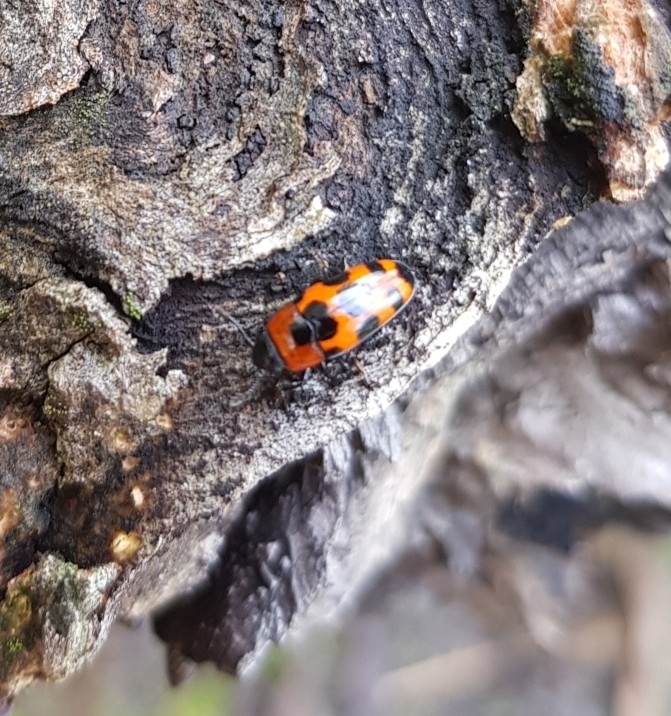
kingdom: Animalia
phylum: Arthropoda
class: Insecta
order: Coleoptera
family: Erotylidae
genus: Episcaphula
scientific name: Episcaphula australis
